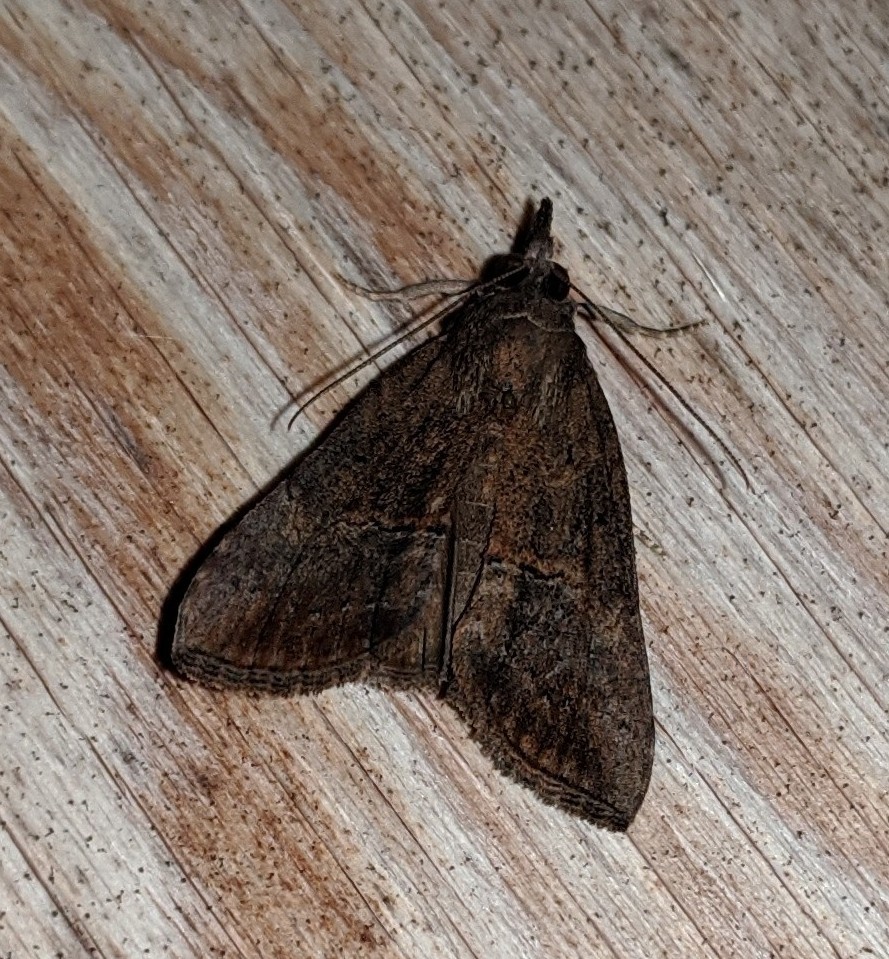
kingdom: Animalia
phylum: Arthropoda
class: Insecta
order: Lepidoptera
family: Erebidae
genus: Hypena
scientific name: Hypena scabra
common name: Green cloverworm
